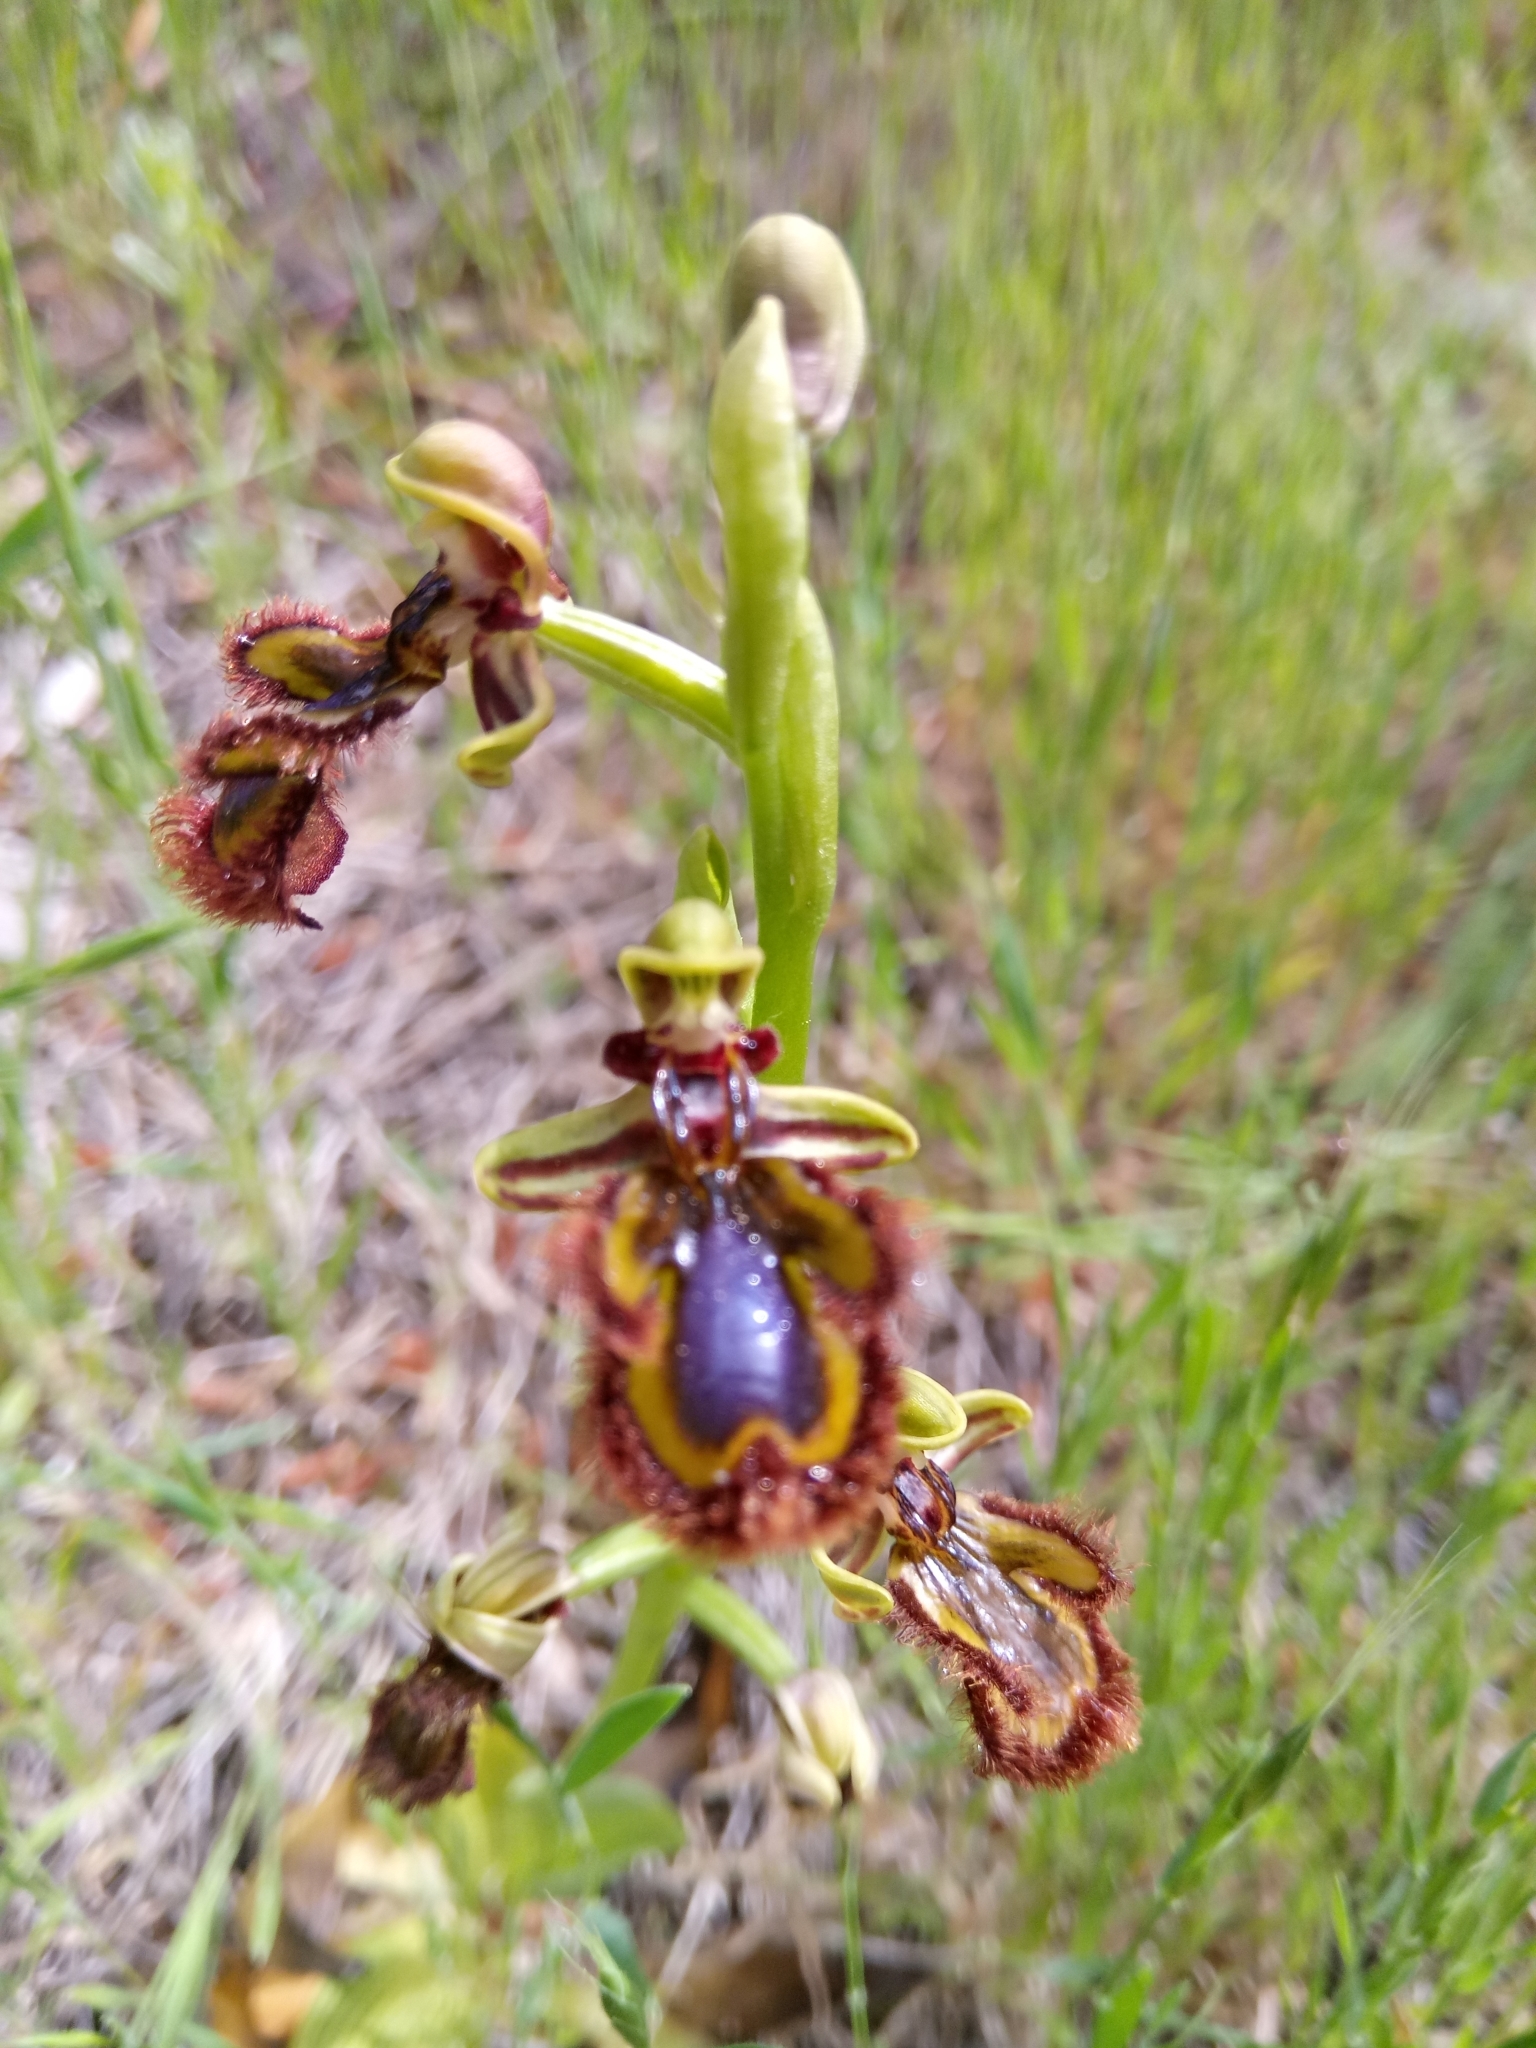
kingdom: Plantae
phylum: Tracheophyta
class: Liliopsida
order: Asparagales
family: Orchidaceae
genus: Ophrys
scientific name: Ophrys speculum
